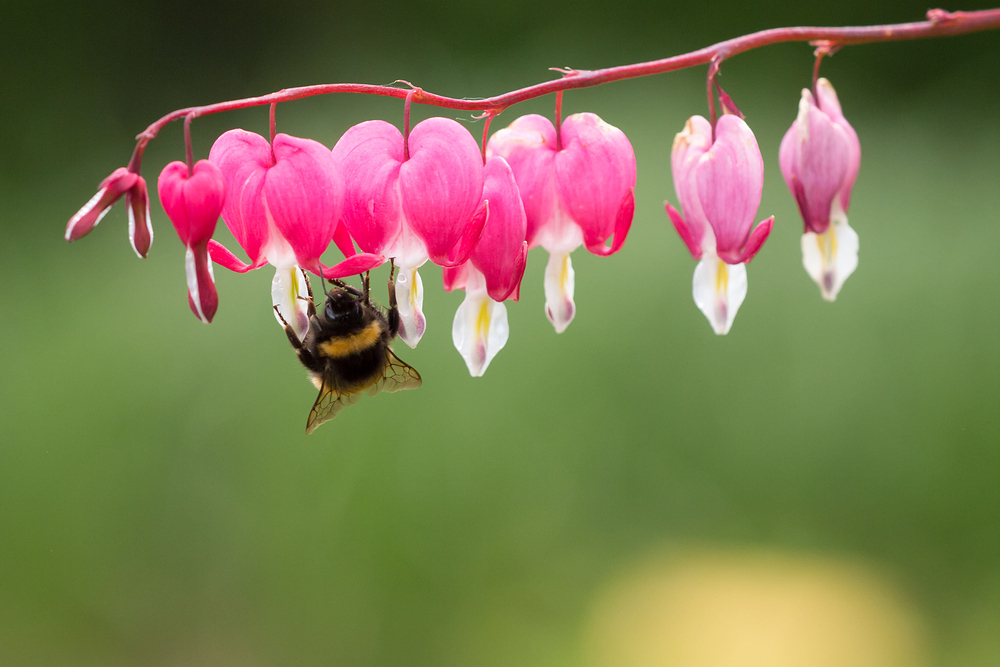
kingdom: Plantae
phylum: Tracheophyta
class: Magnoliopsida
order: Ranunculales
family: Papaveraceae
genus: Lamprocapnos
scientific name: Lamprocapnos spectabilis
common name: Asian bleeding-heart
